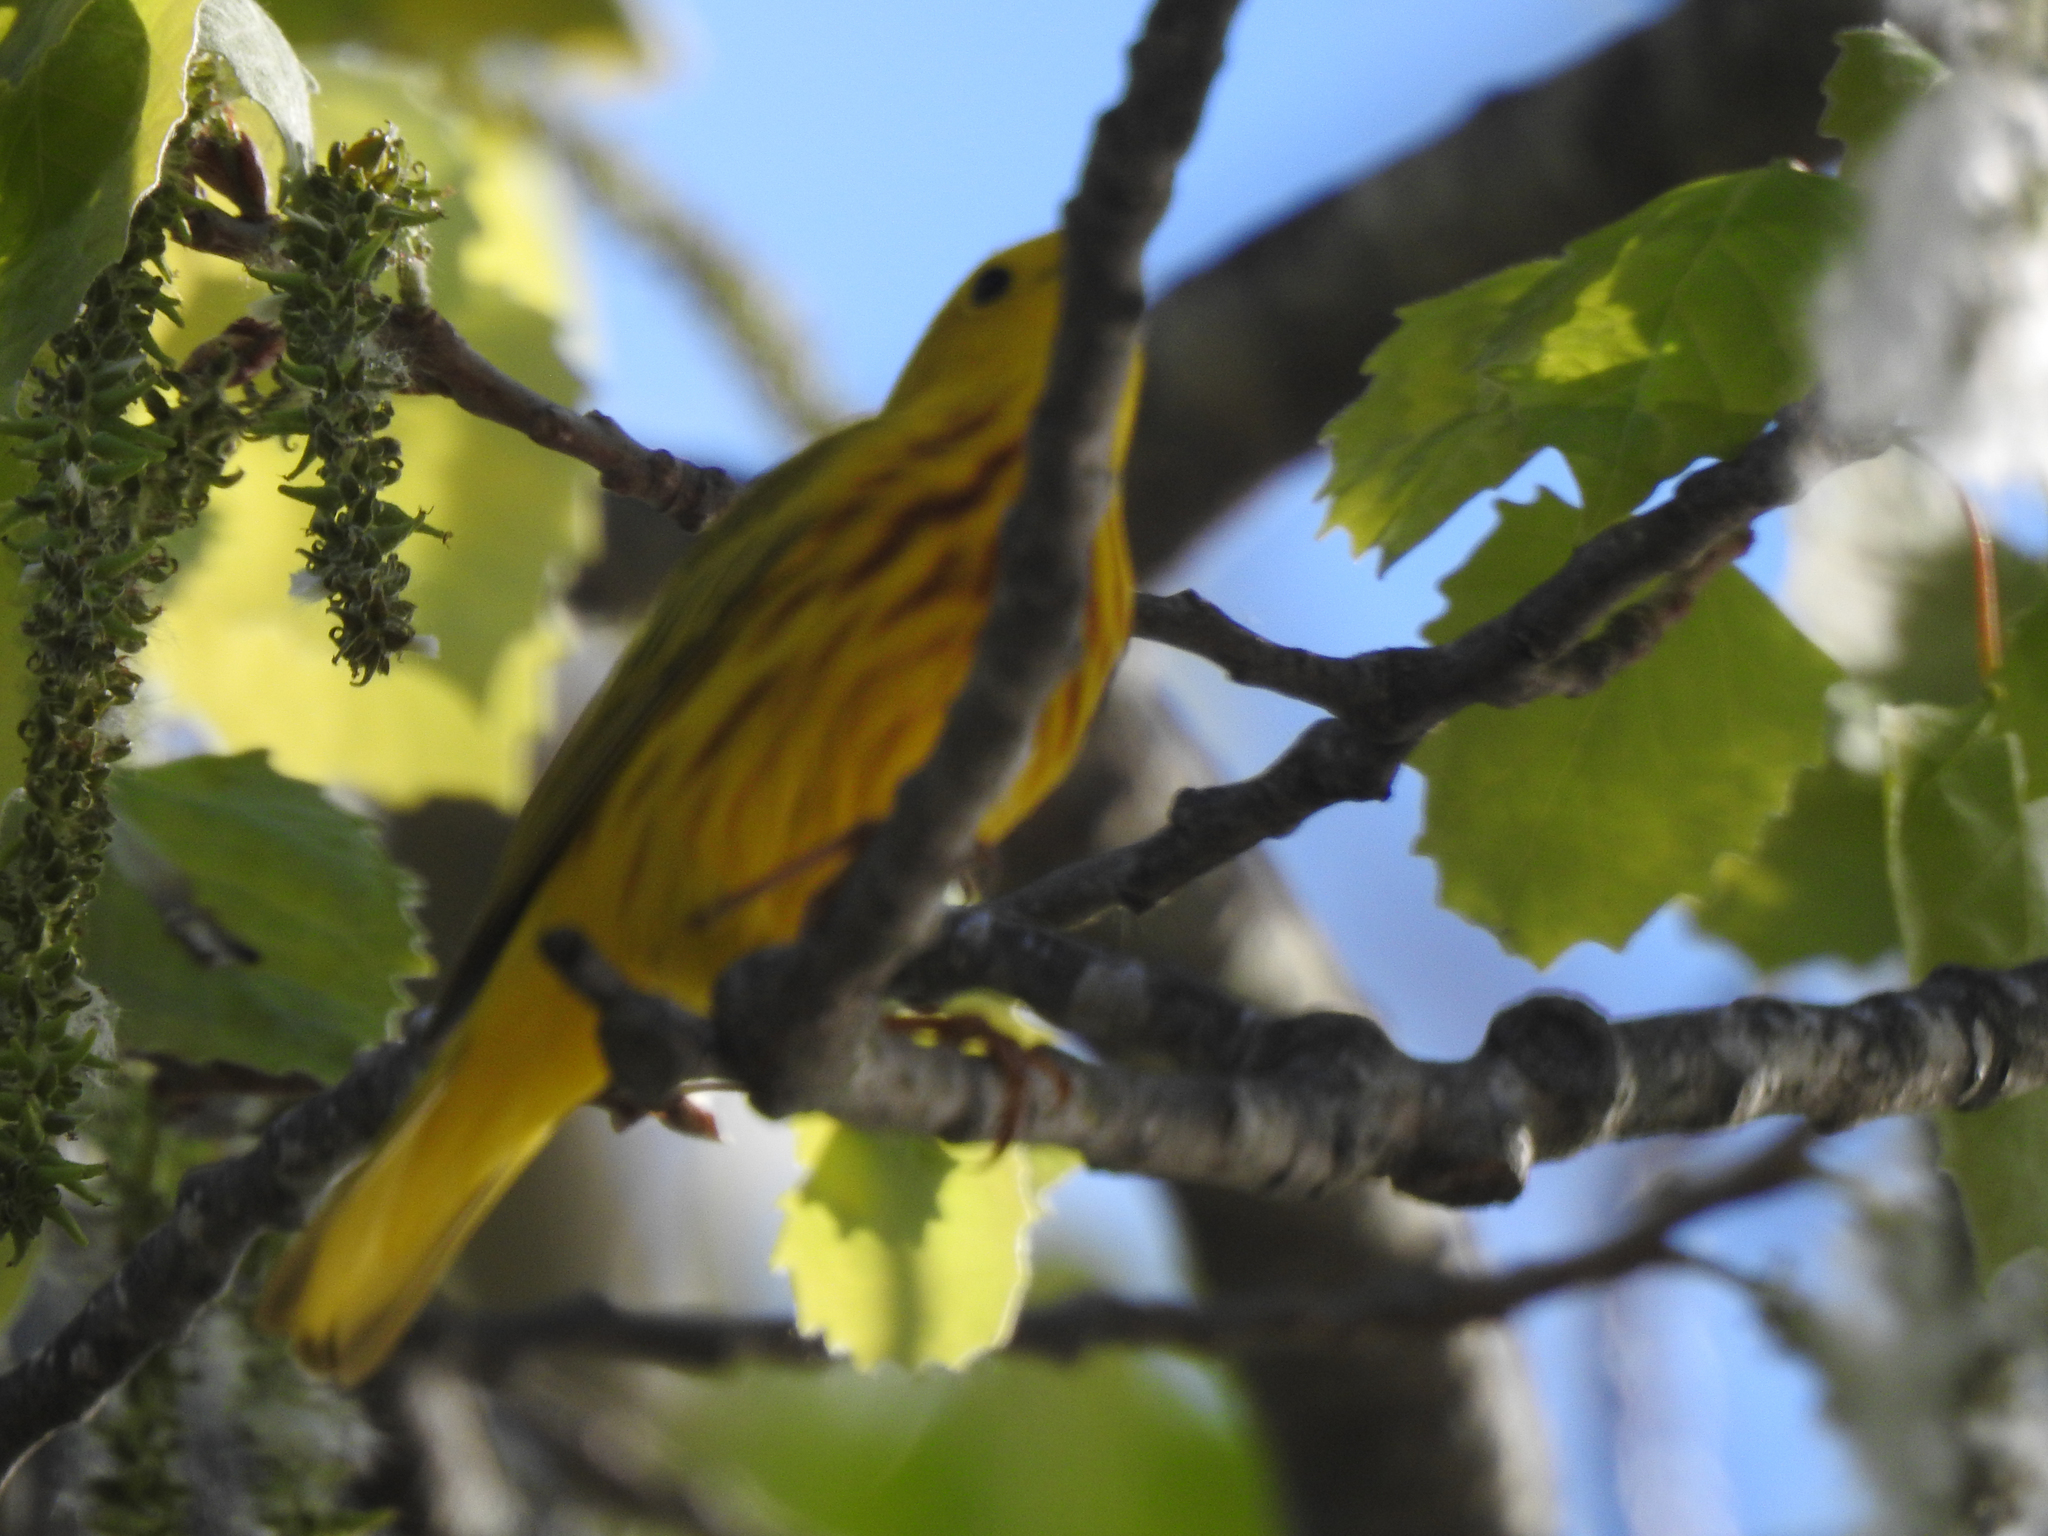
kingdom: Animalia
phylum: Chordata
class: Aves
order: Passeriformes
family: Parulidae
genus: Setophaga
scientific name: Setophaga petechia
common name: Yellow warbler
